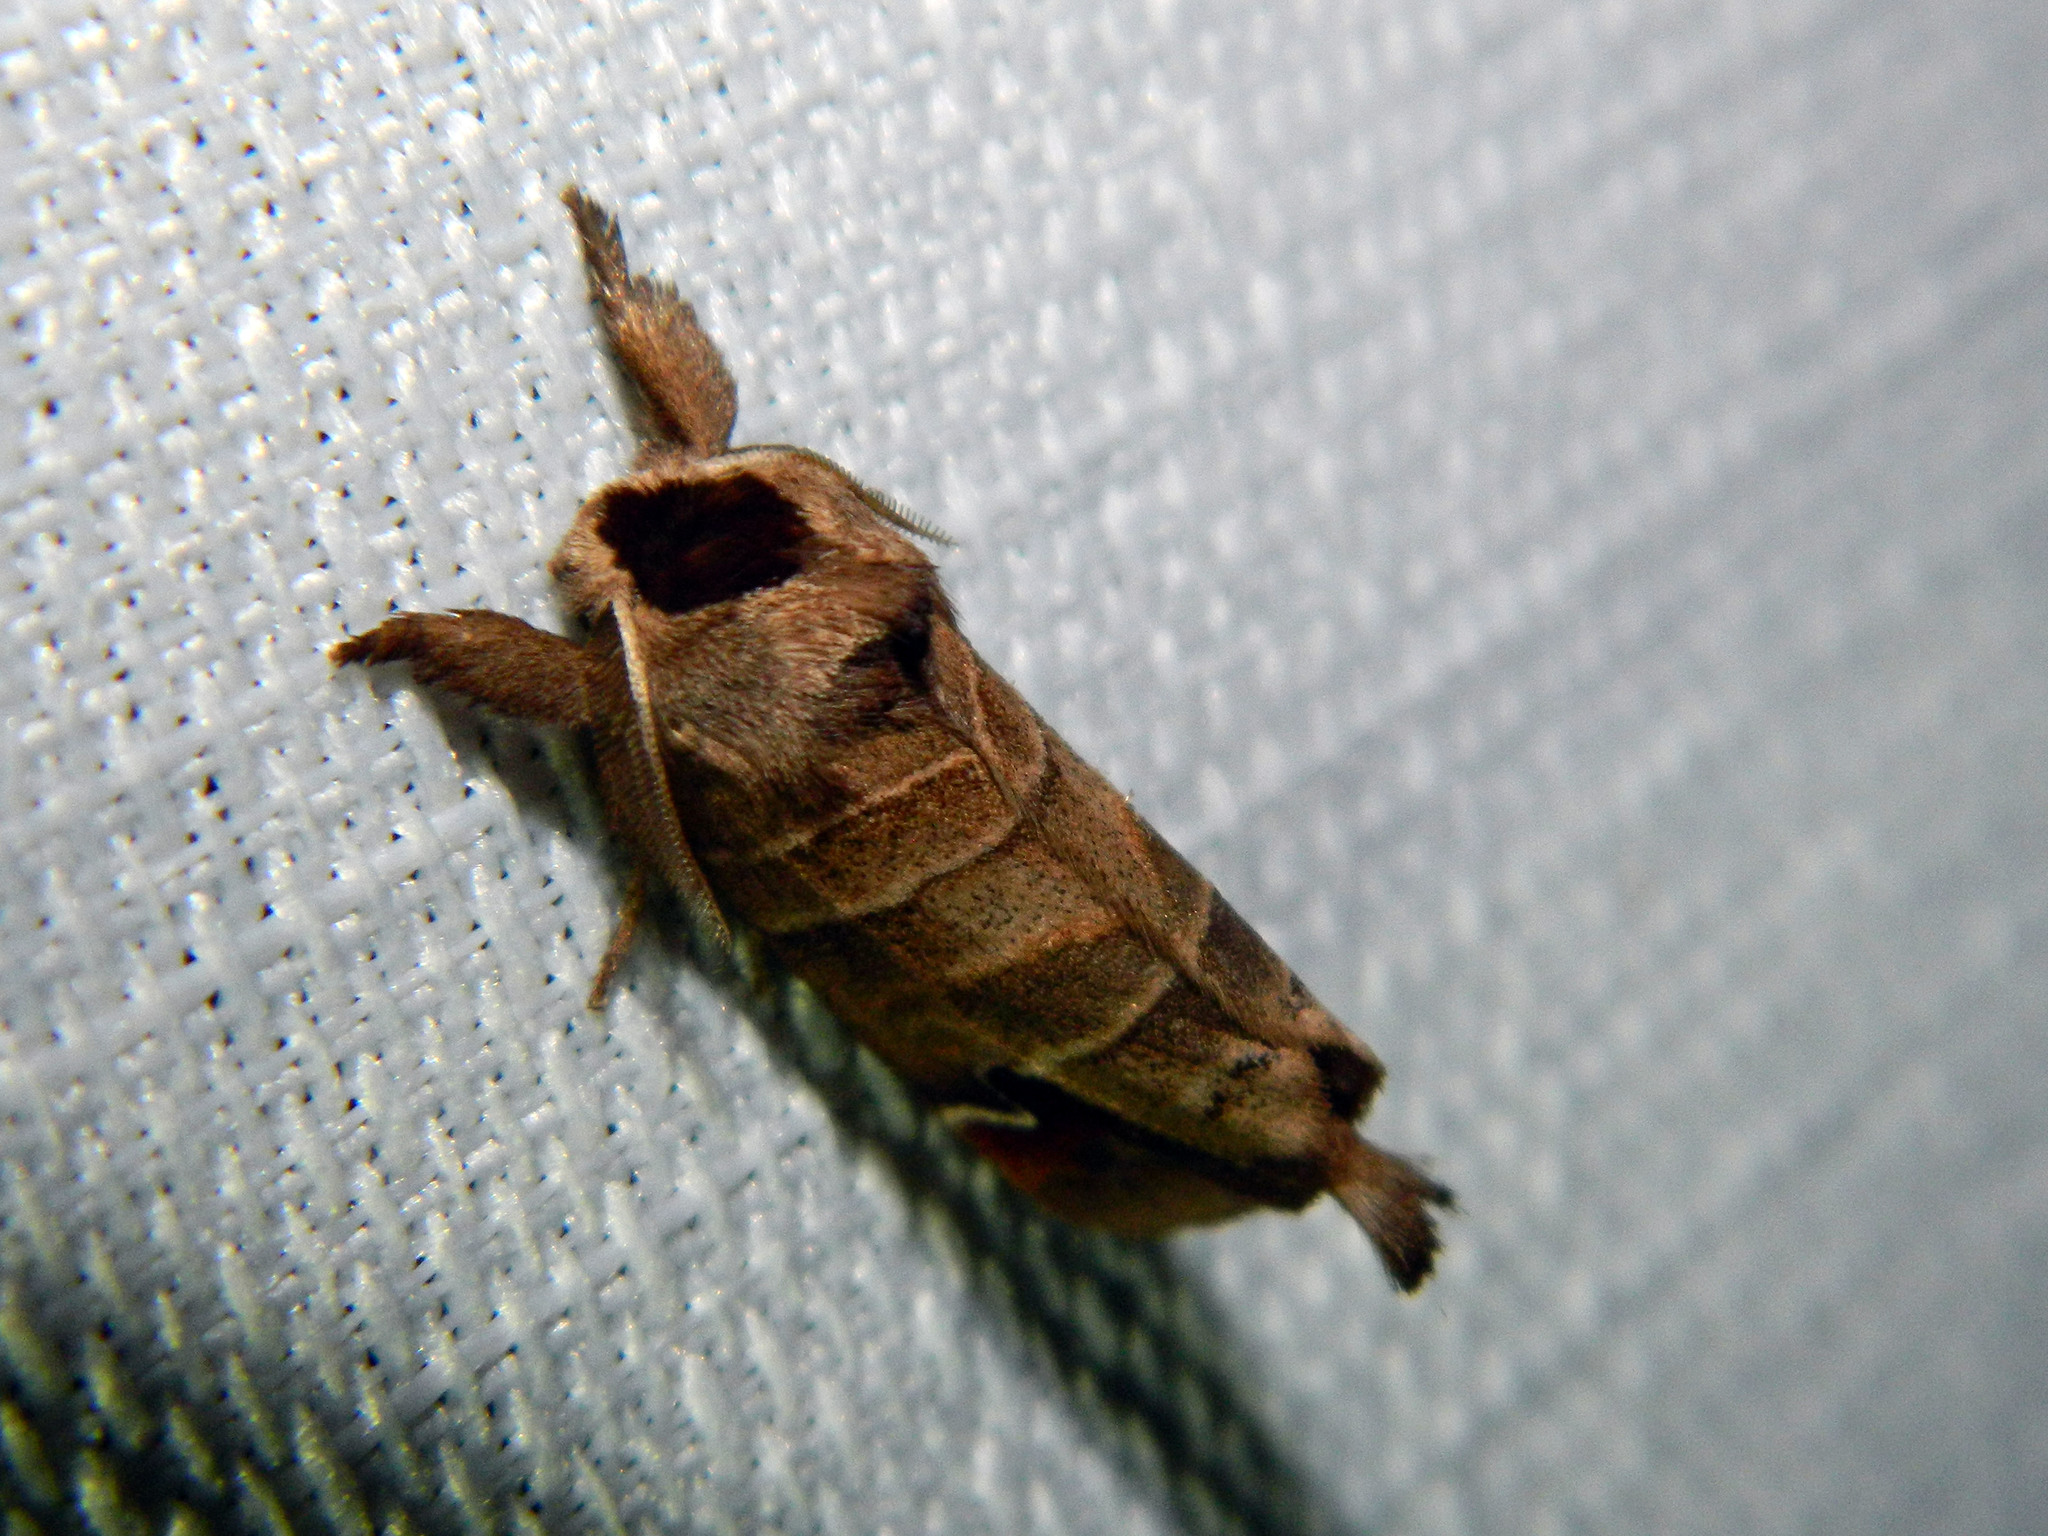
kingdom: Animalia
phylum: Arthropoda
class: Insecta
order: Lepidoptera
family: Notodontidae
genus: Clostera
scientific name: Clostera albosigma
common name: Sigmoid prominent
